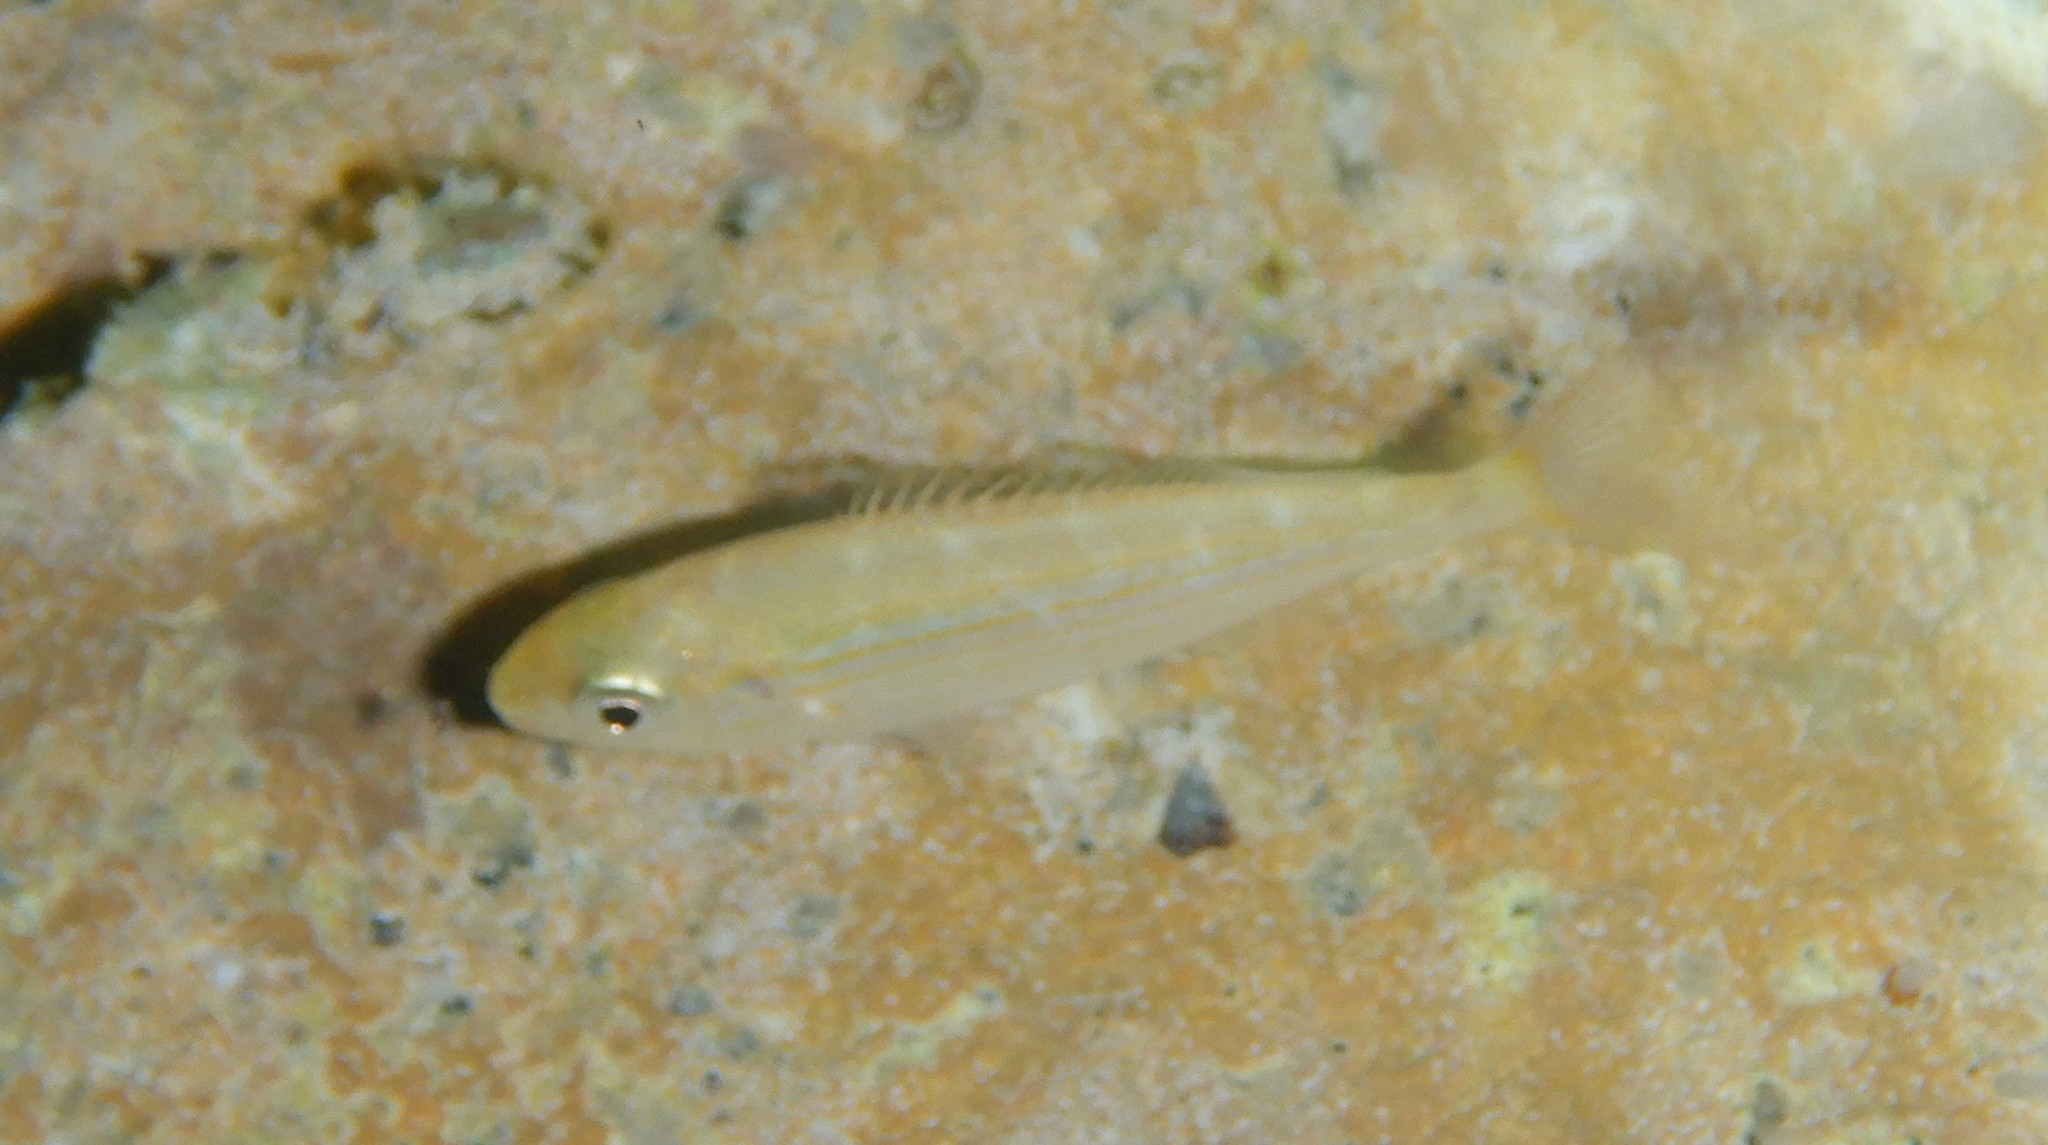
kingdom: Animalia
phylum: Chordata
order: Perciformes
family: Sparidae
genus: Sarpa
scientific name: Sarpa salpa
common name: Salema
